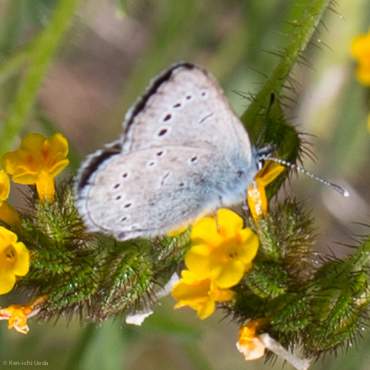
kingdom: Animalia
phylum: Arthropoda
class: Insecta
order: Lepidoptera
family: Lycaenidae
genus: Glaucopsyche
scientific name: Glaucopsyche lygdamus
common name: Silvery blue
